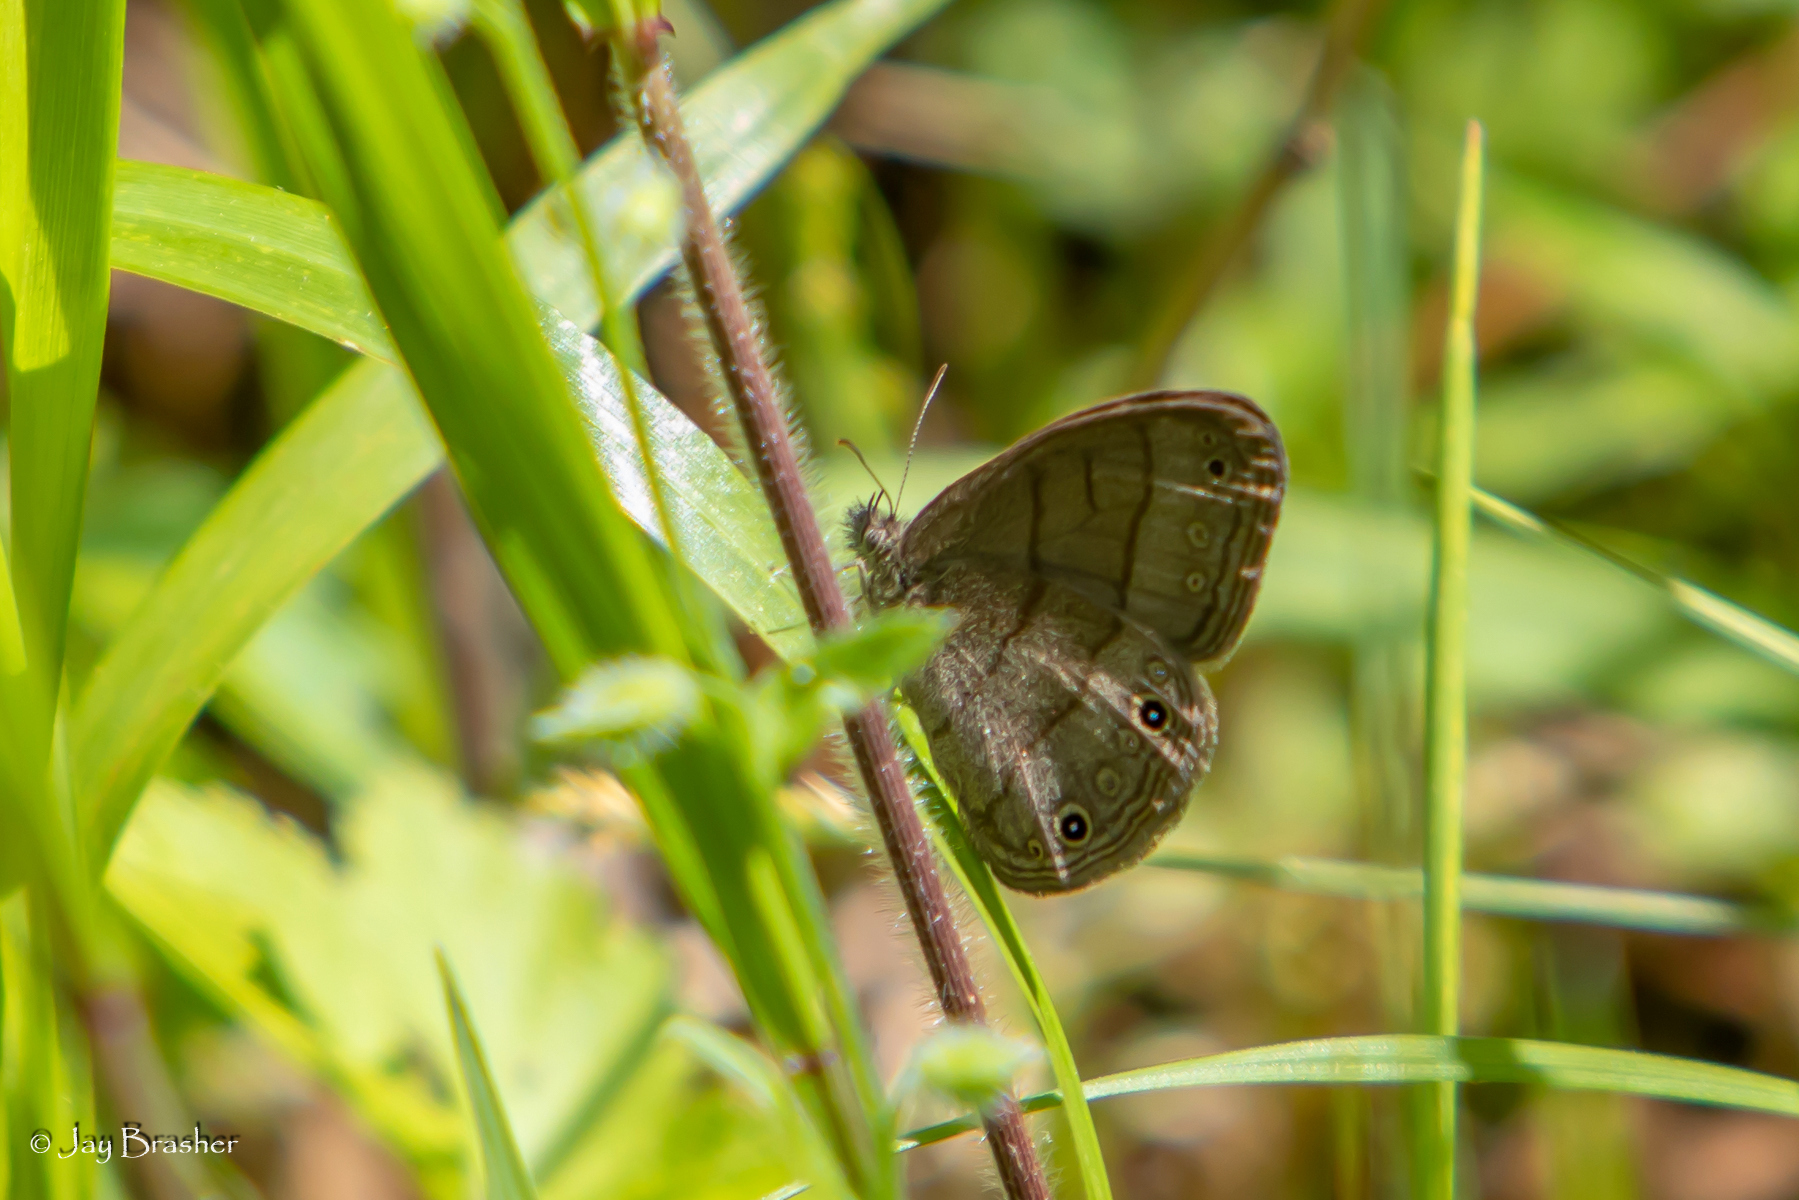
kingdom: Animalia
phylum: Arthropoda
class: Insecta
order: Lepidoptera
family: Nymphalidae
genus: Hermeuptychia
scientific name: Hermeuptychia hermes
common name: Hermes satyr
